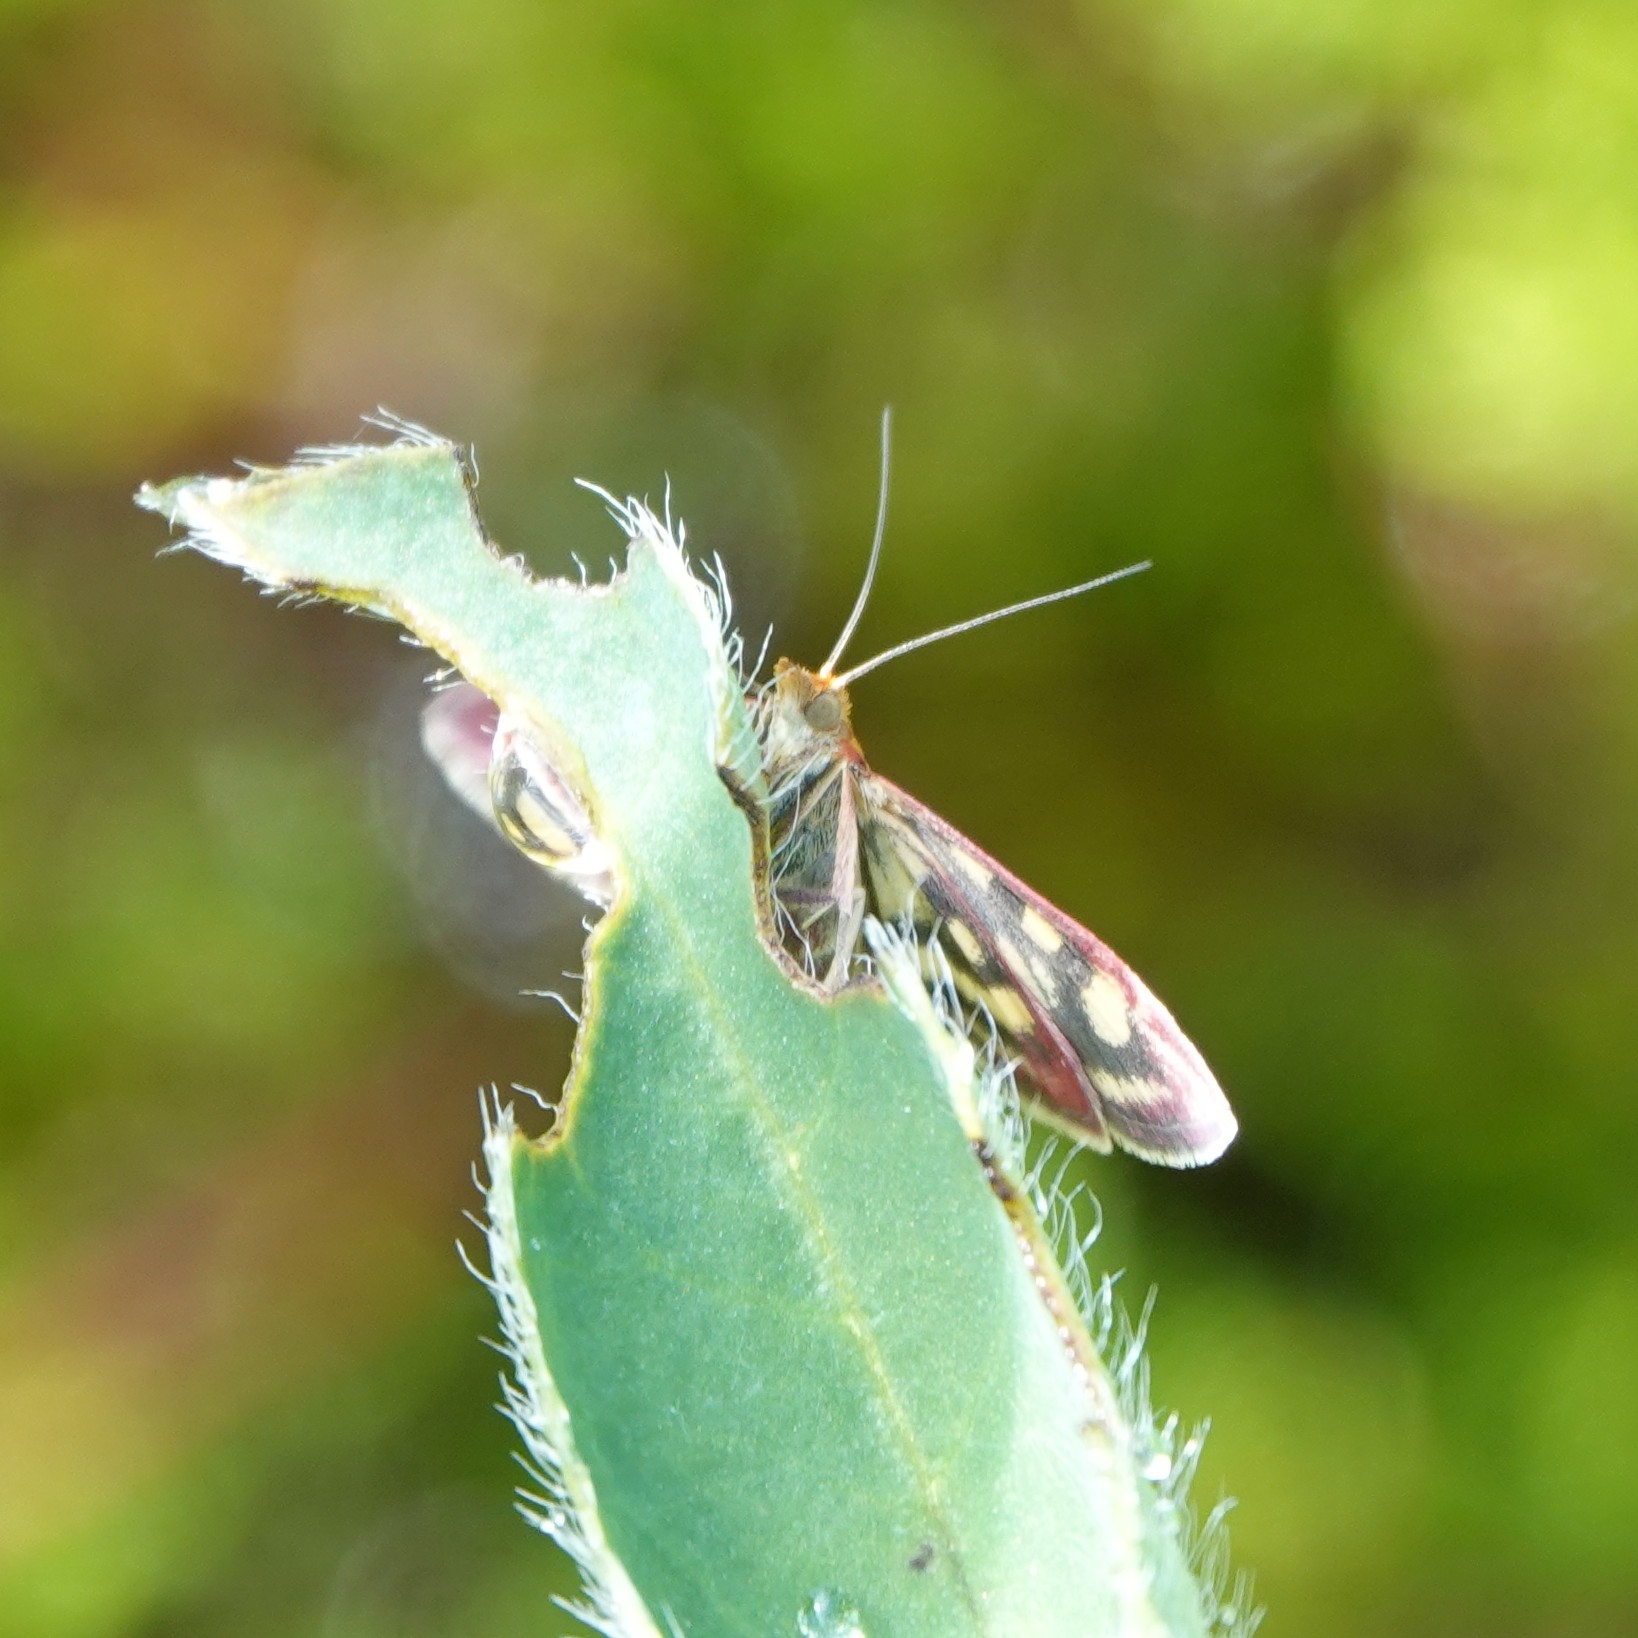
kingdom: Animalia
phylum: Arthropoda
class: Insecta
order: Lepidoptera
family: Crambidae
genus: Pyrausta
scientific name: Pyrausta purpuralis
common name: Common purple & gold
